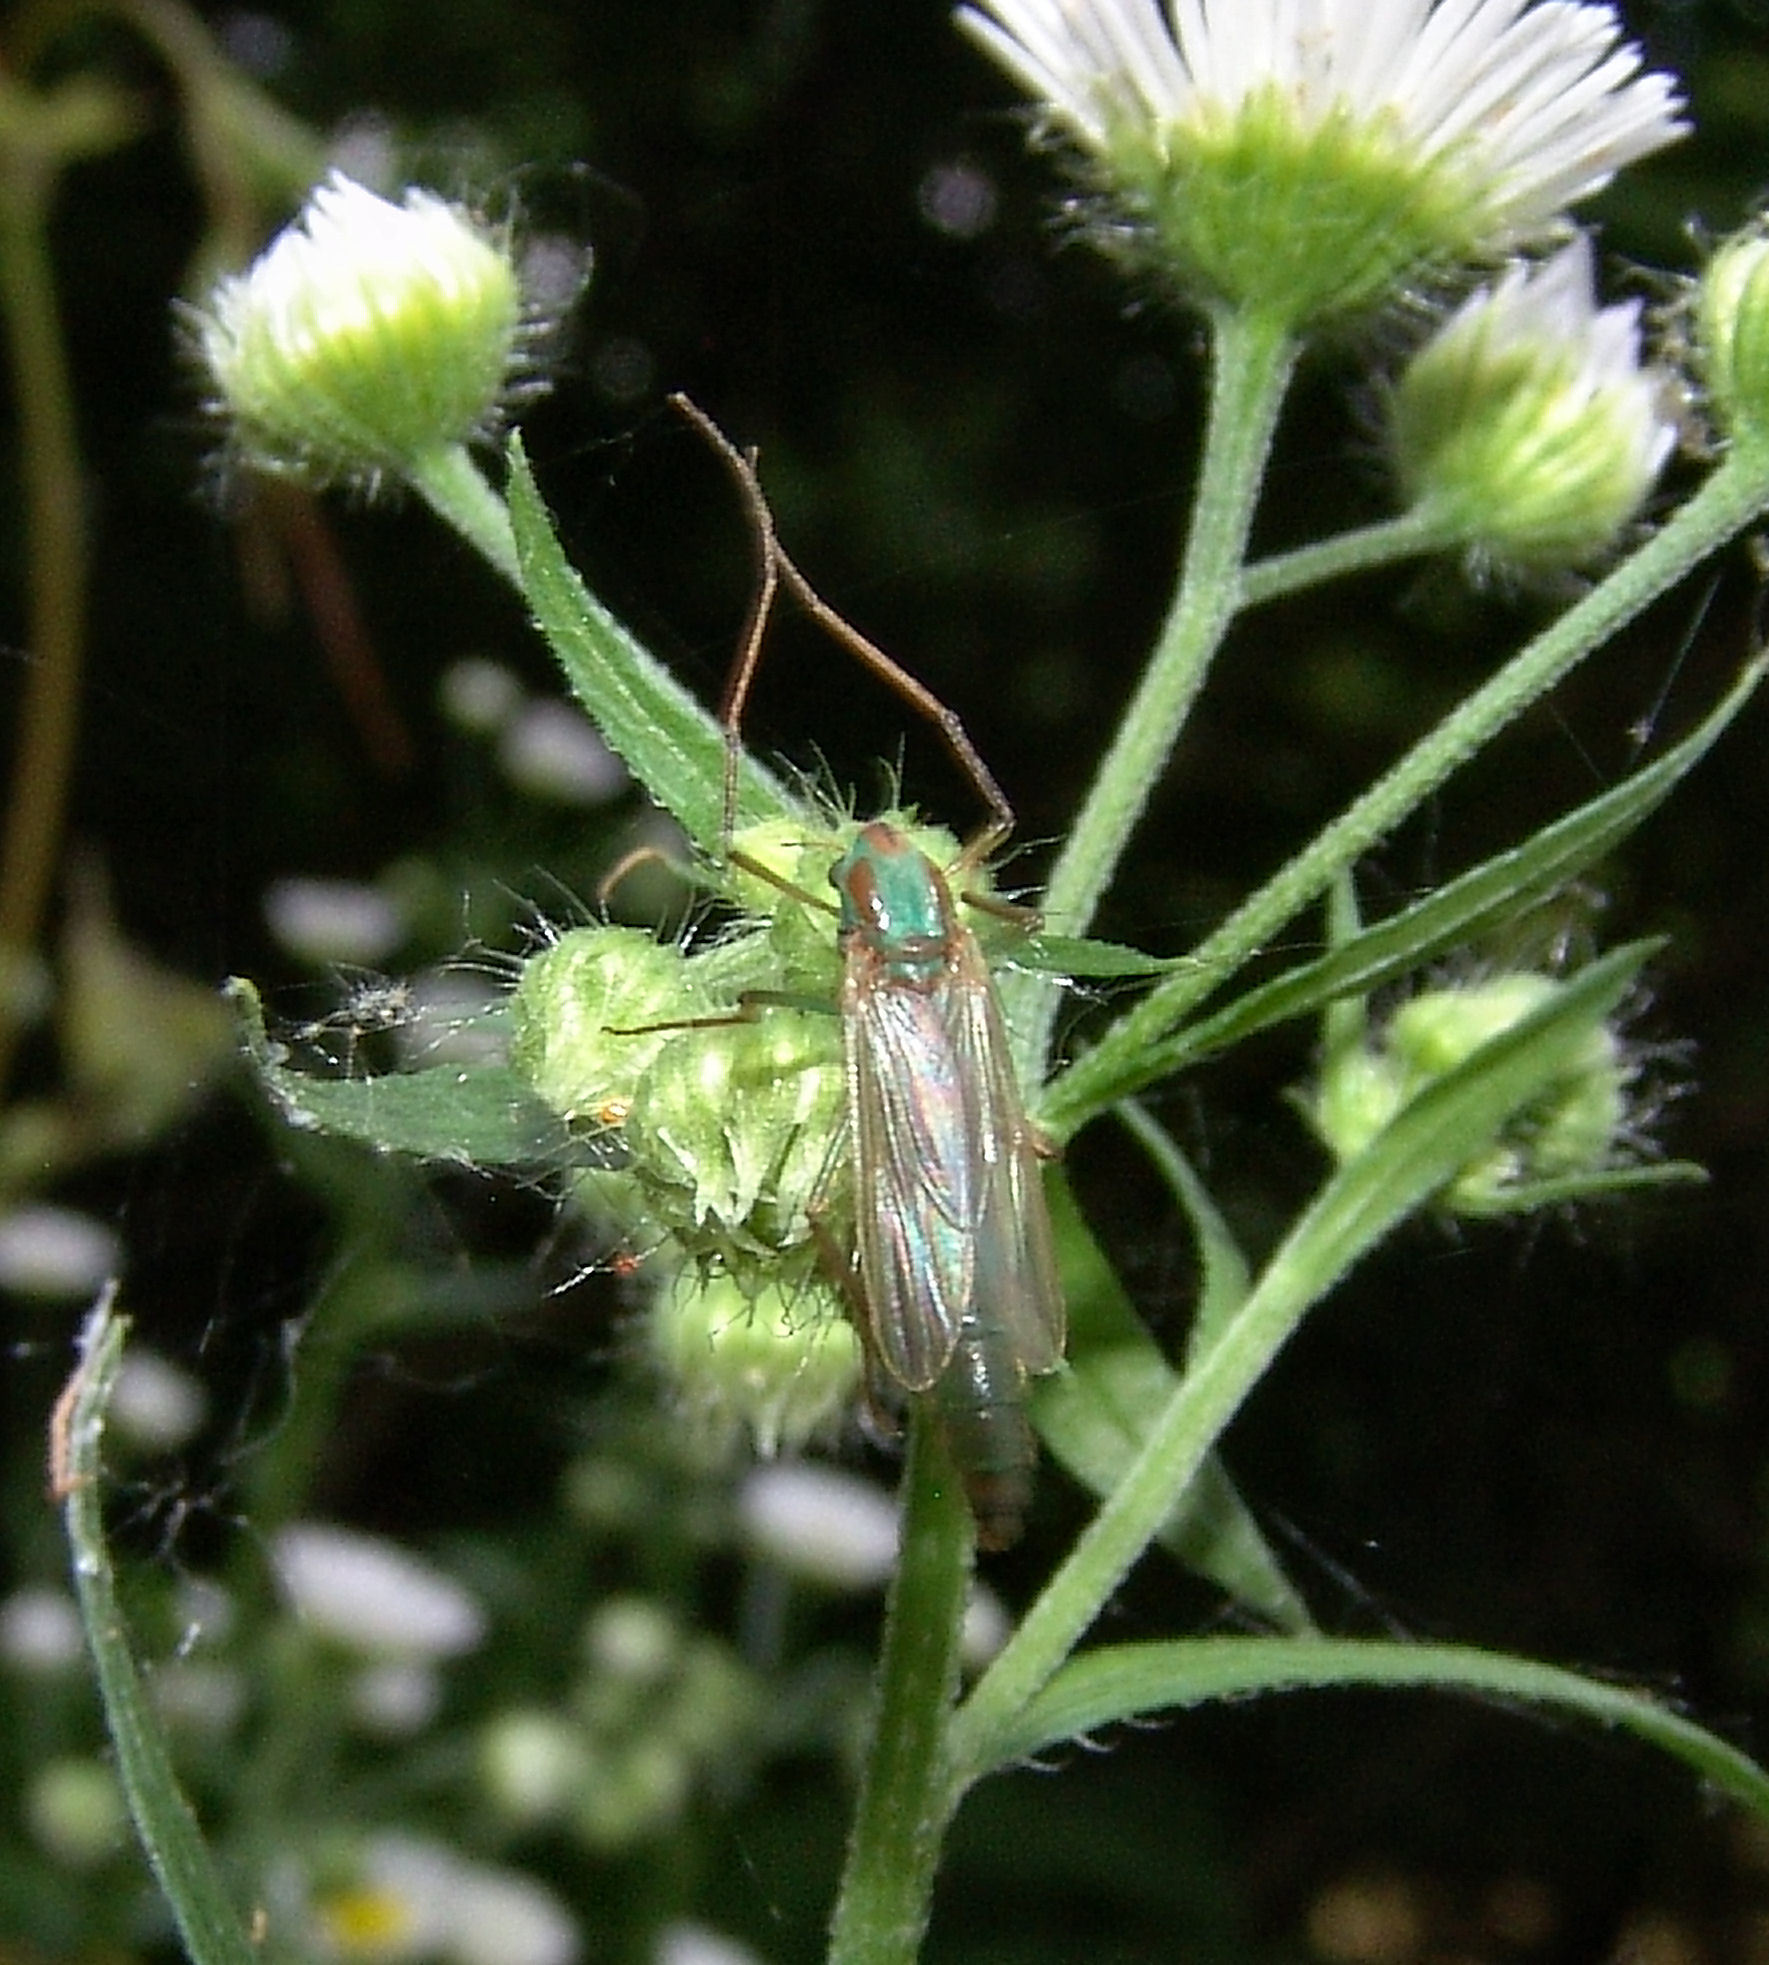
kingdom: Animalia
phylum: Arthropoda
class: Insecta
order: Diptera
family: Chironomidae
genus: Axarus
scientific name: Axarus
